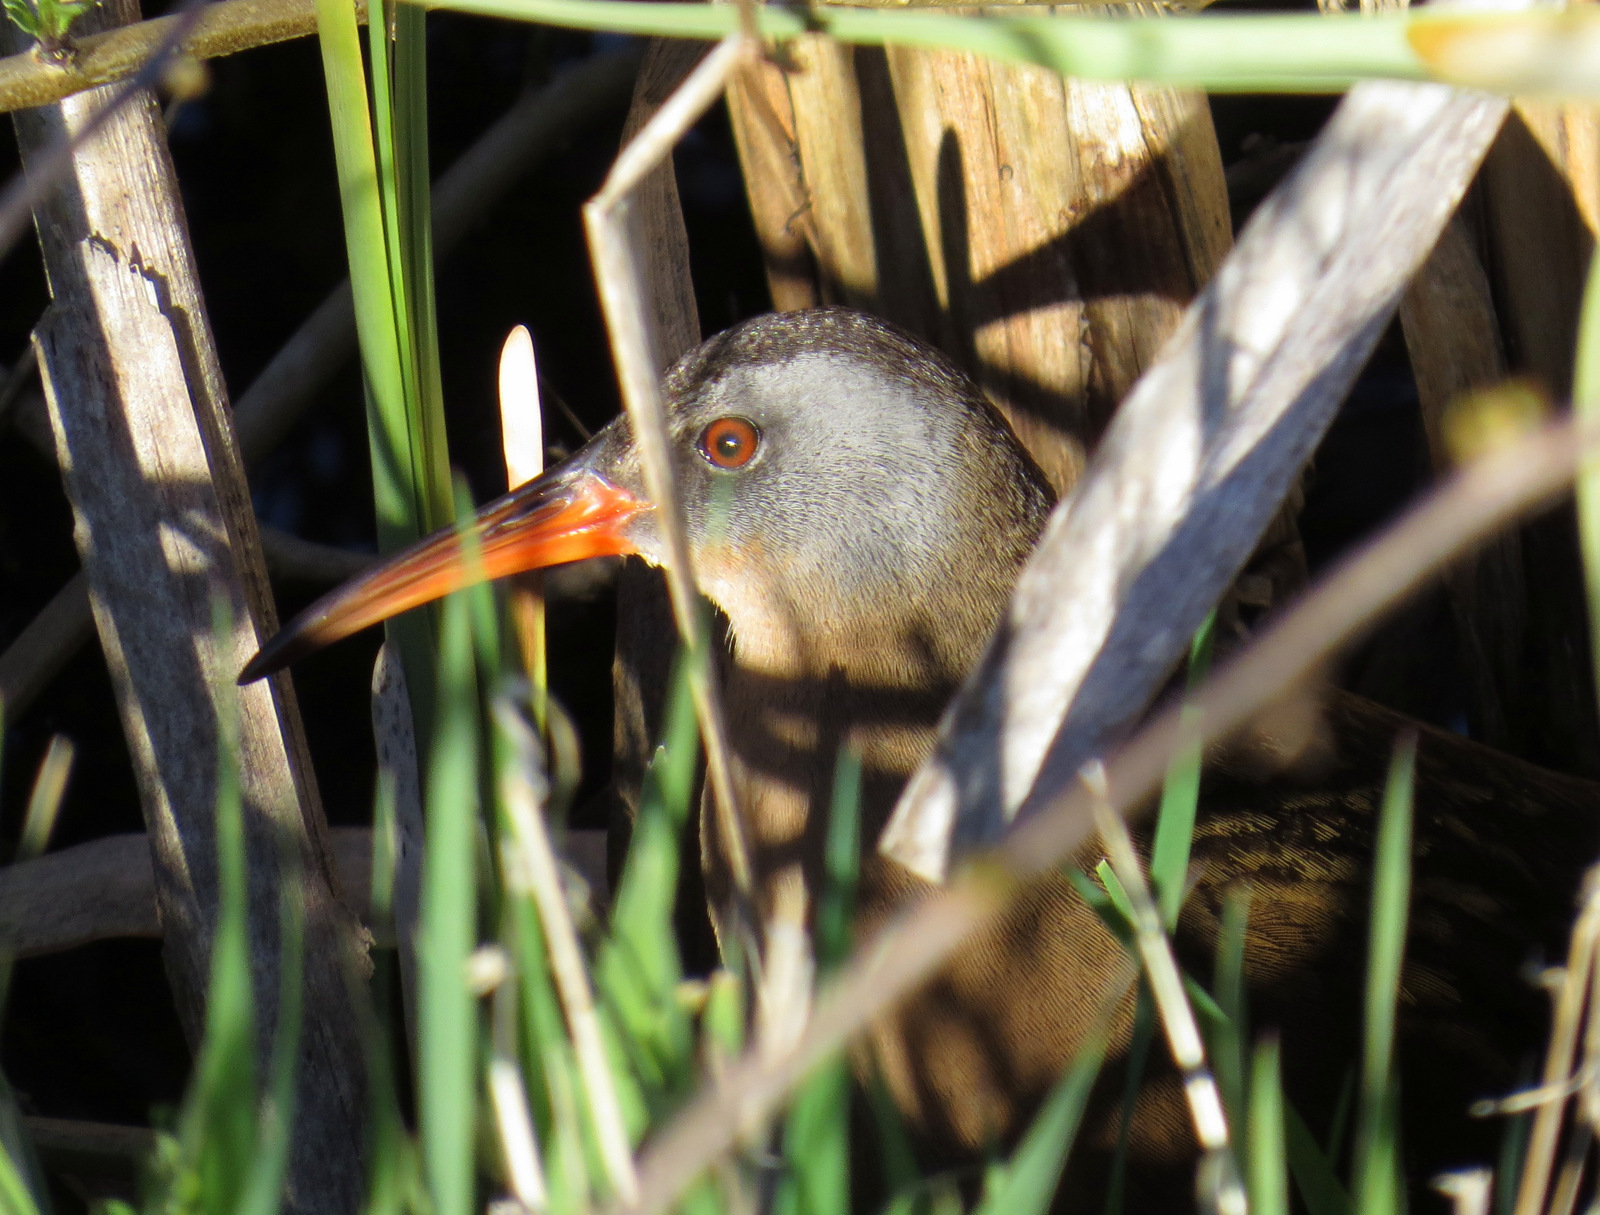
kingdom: Animalia
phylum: Chordata
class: Aves
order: Gruiformes
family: Rallidae
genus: Rallus
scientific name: Rallus limicola
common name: Virginia rail
